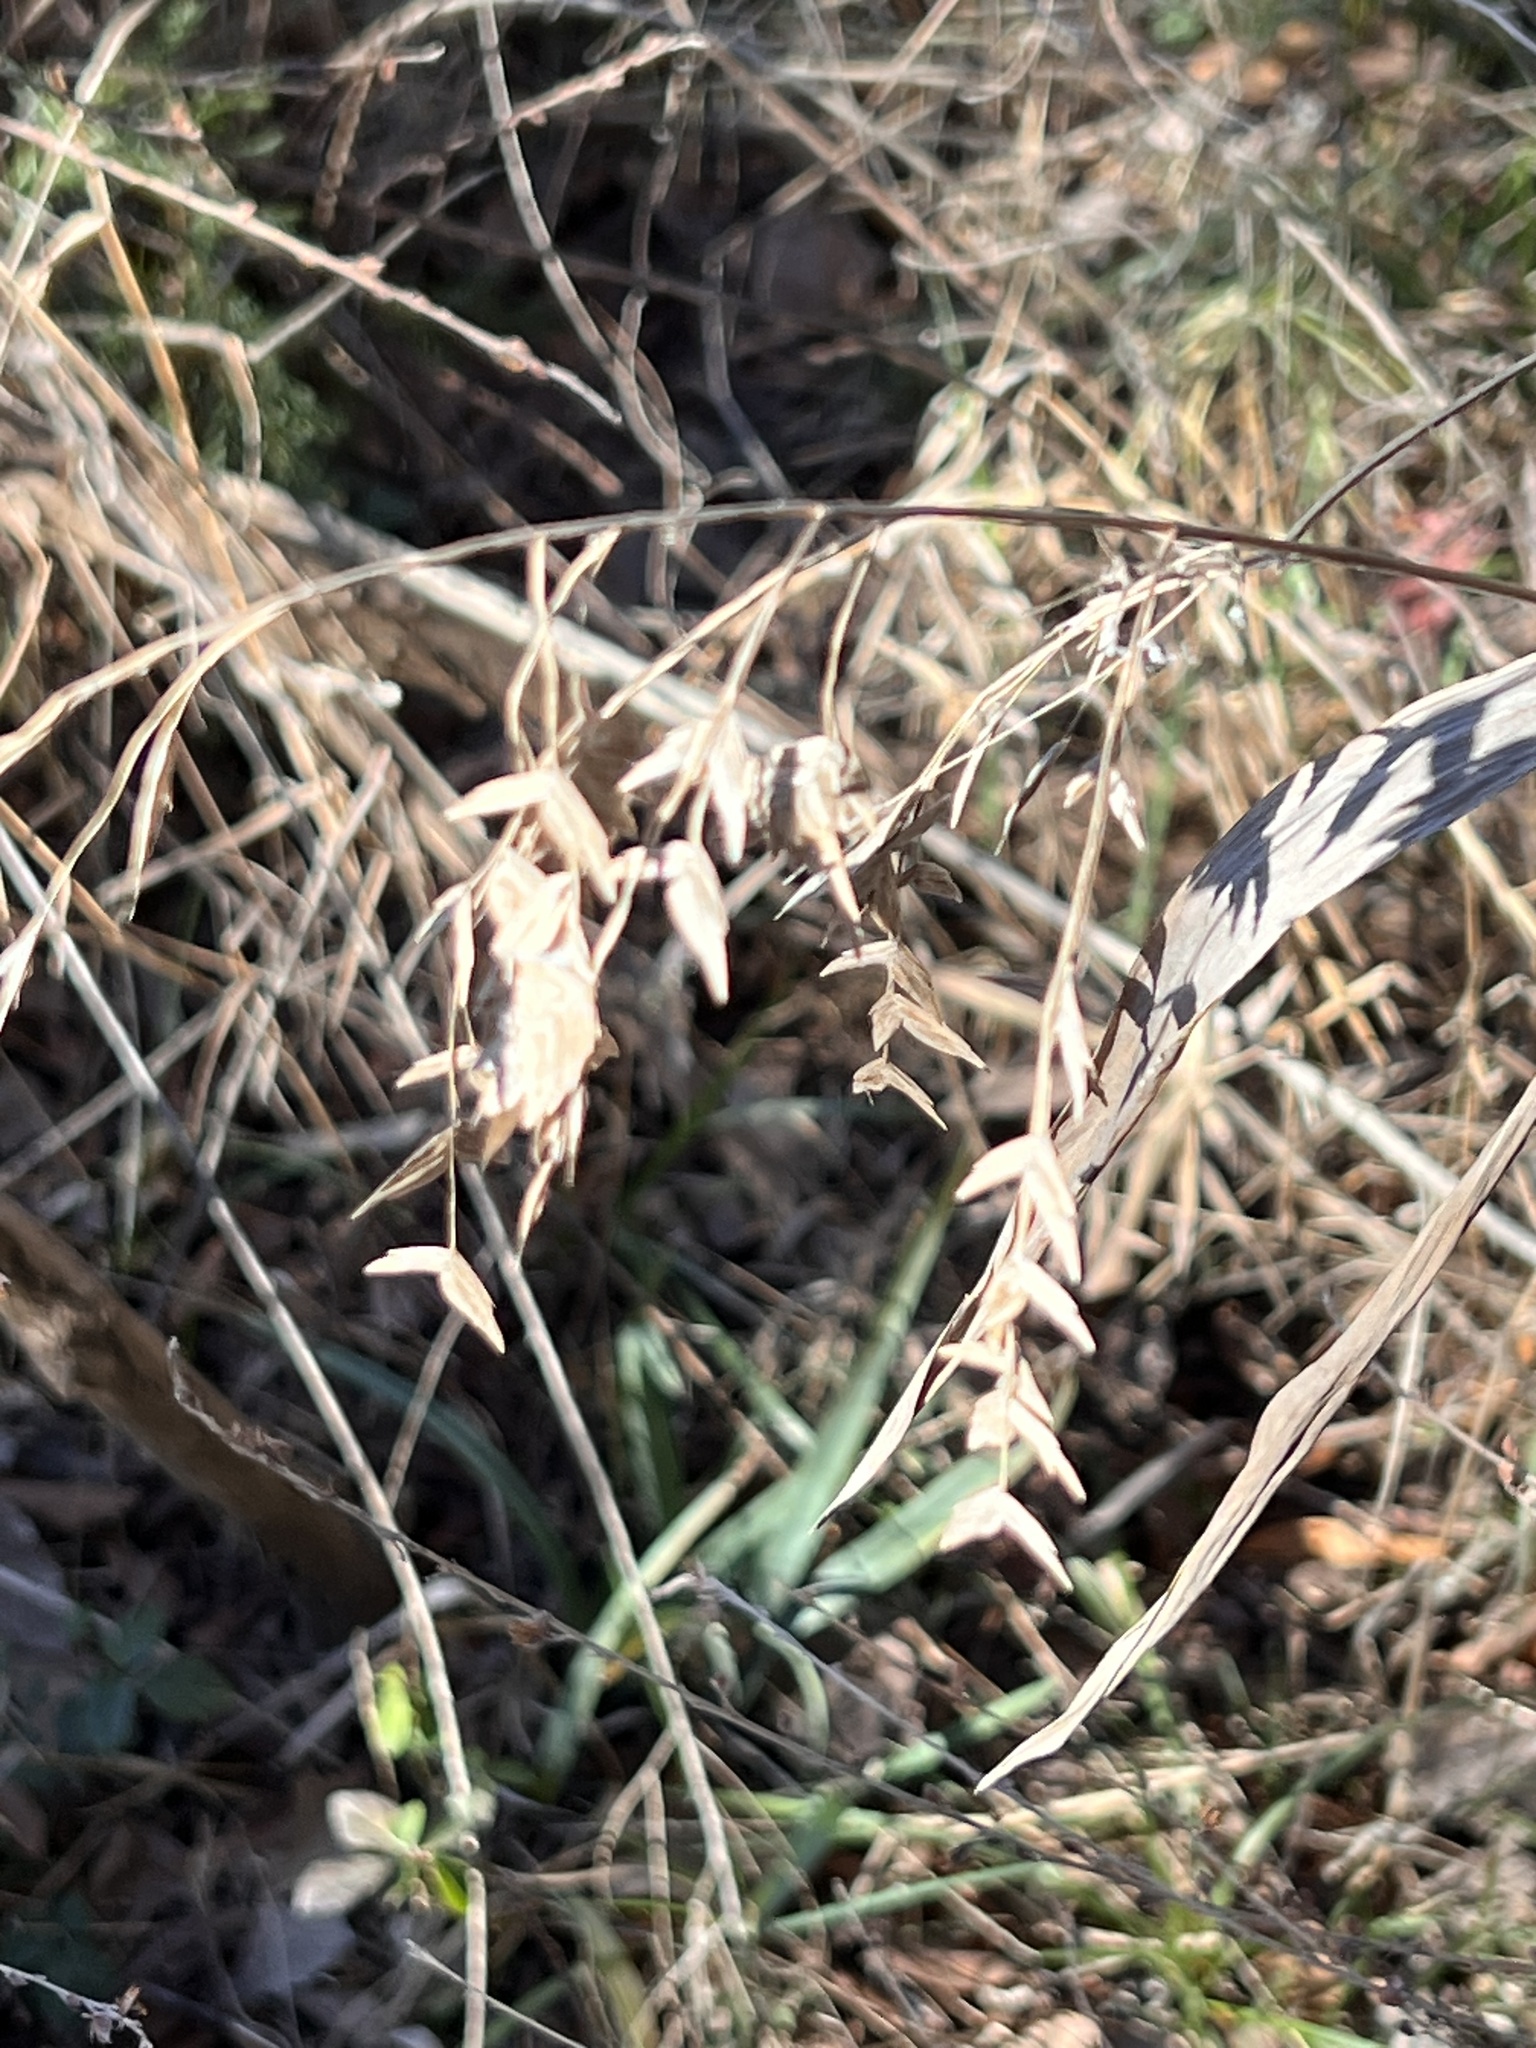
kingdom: Plantae
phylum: Tracheophyta
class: Liliopsida
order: Poales
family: Poaceae
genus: Chasmanthium
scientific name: Chasmanthium latifolium
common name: Broad-leaved chasmanthium
